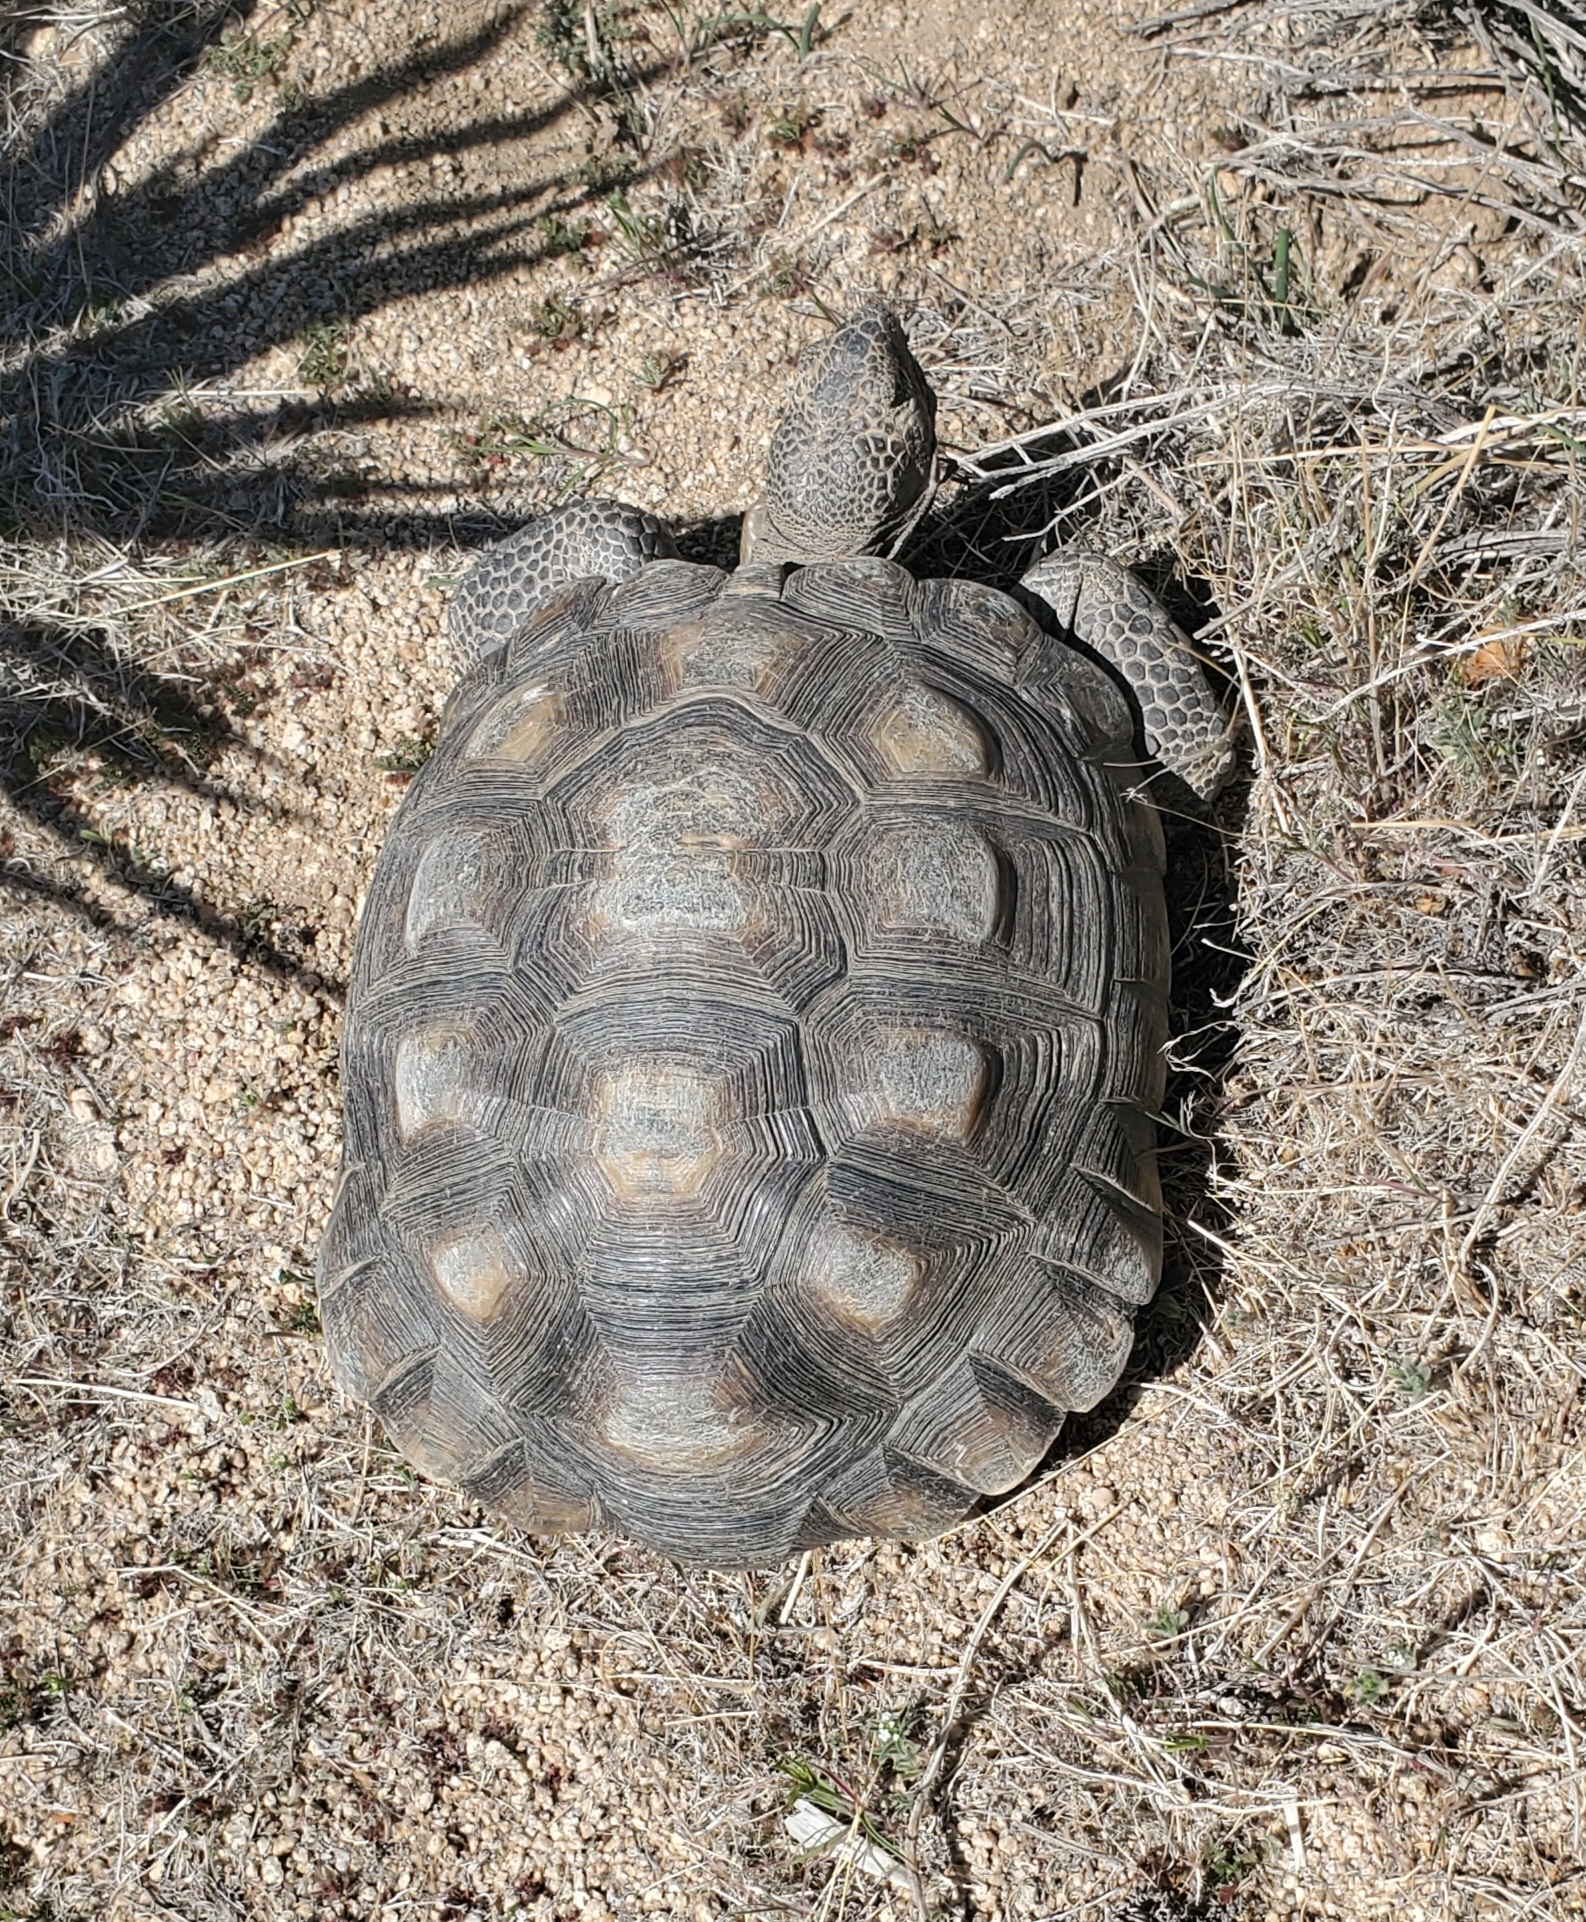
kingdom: Animalia
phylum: Chordata
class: Testudines
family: Testudinidae
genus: Gopherus
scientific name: Gopherus agassizii
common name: Mojave desert tortoise
